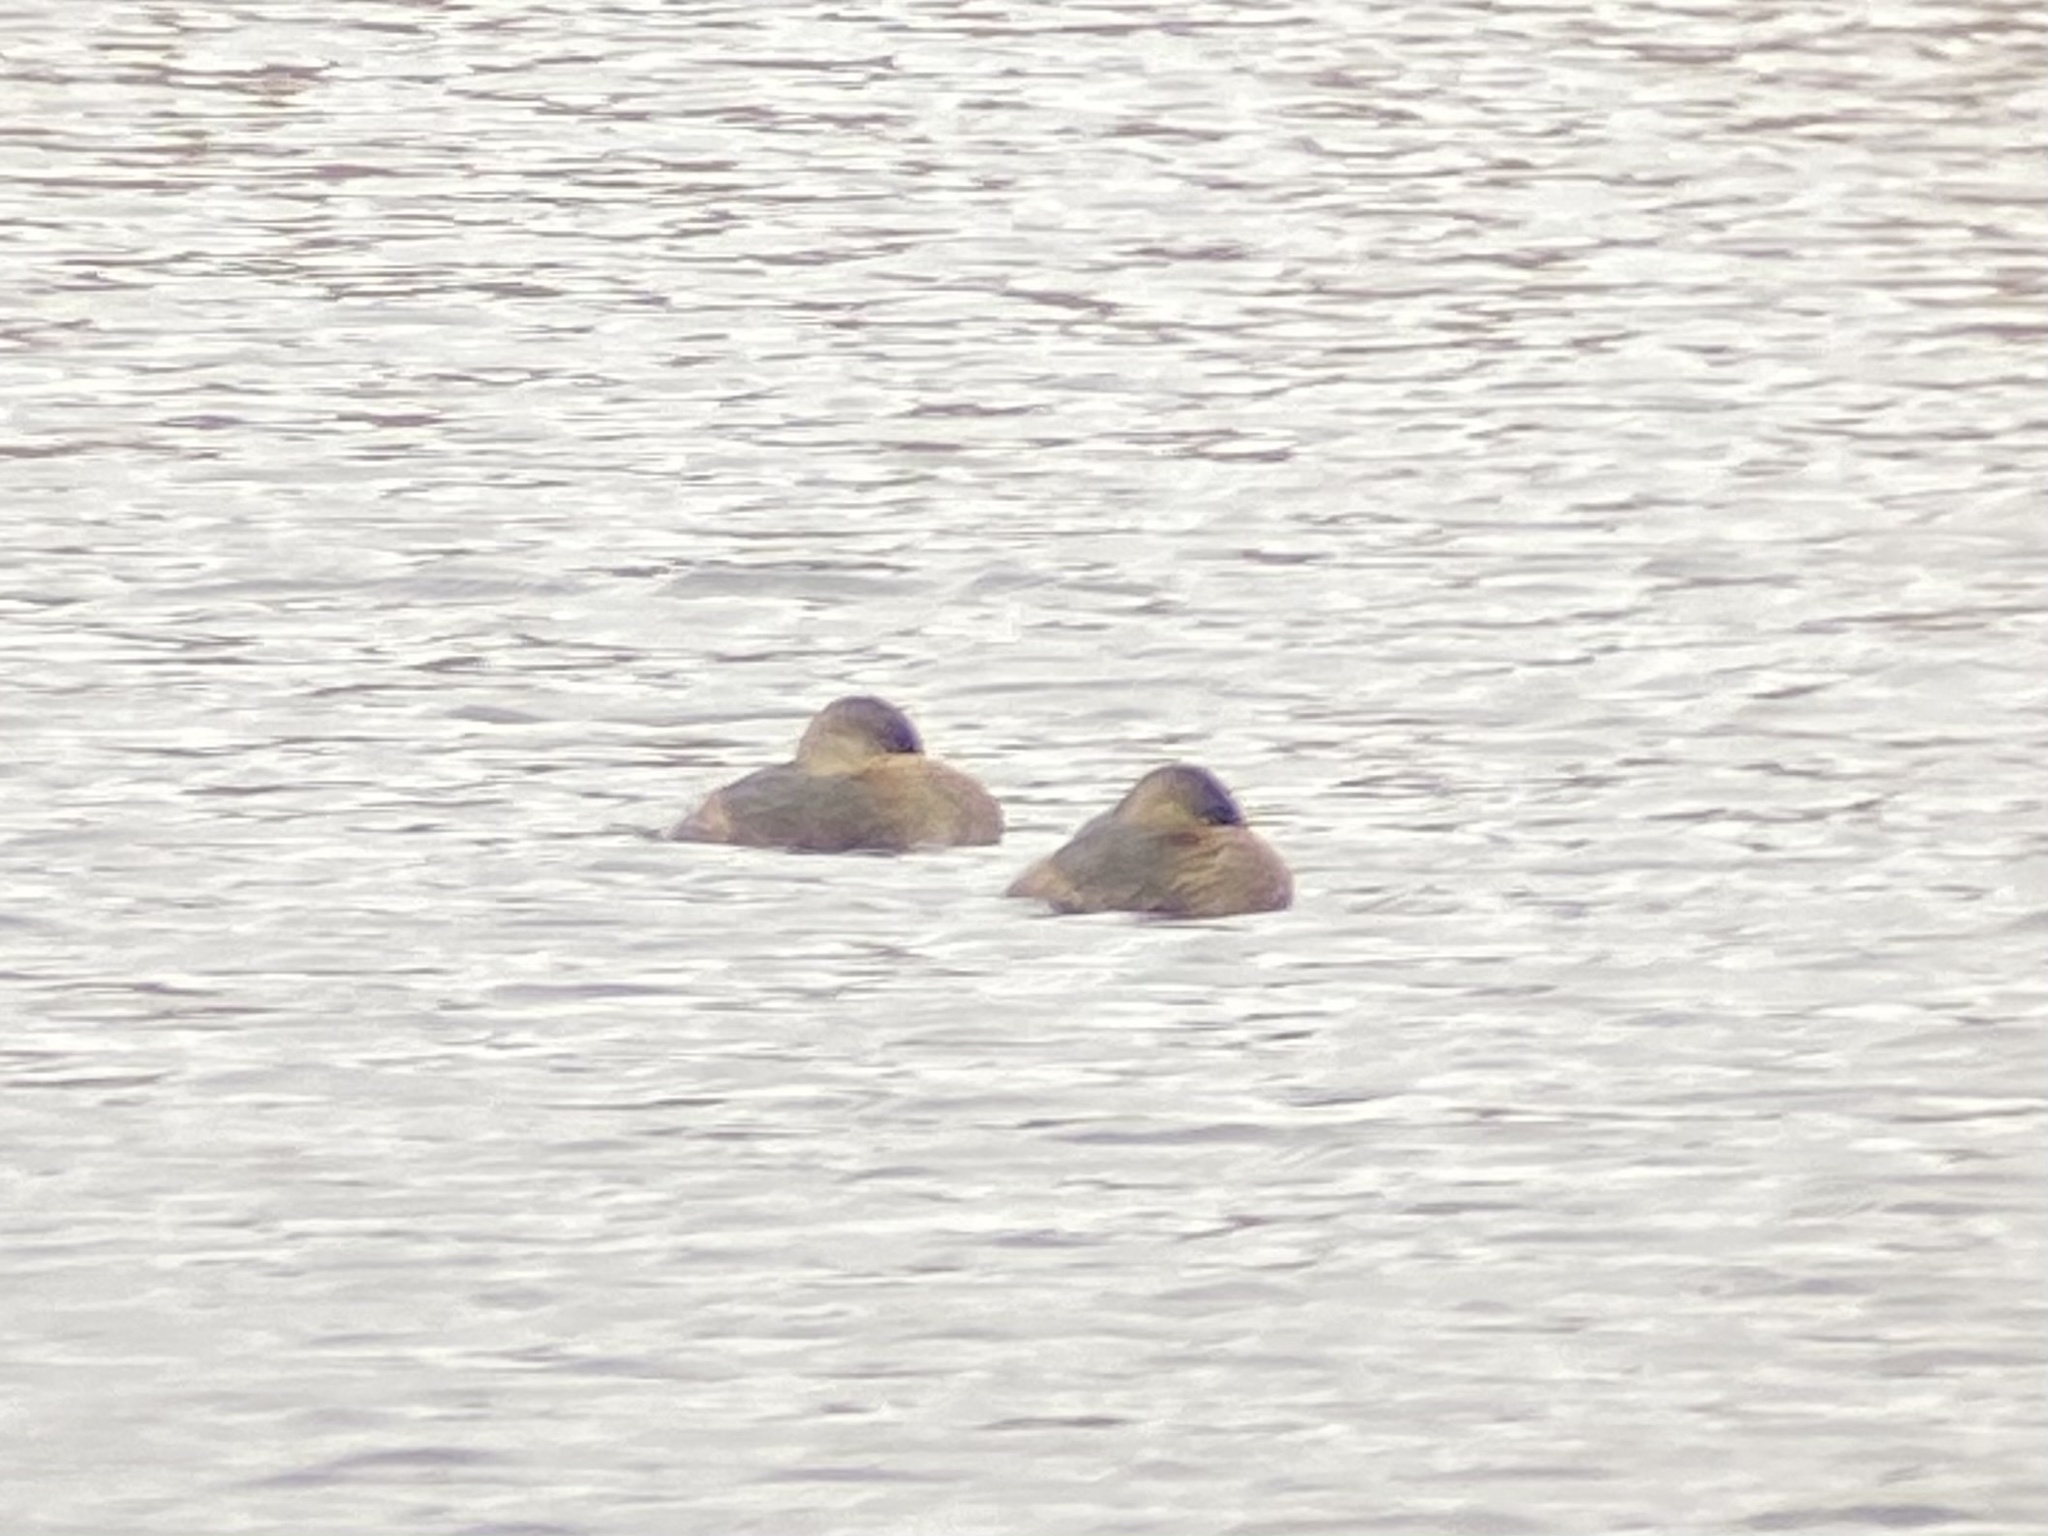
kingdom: Animalia
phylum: Chordata
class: Aves
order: Podicipediformes
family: Podicipedidae
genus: Podilymbus
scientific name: Podilymbus podiceps
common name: Pied-billed grebe
